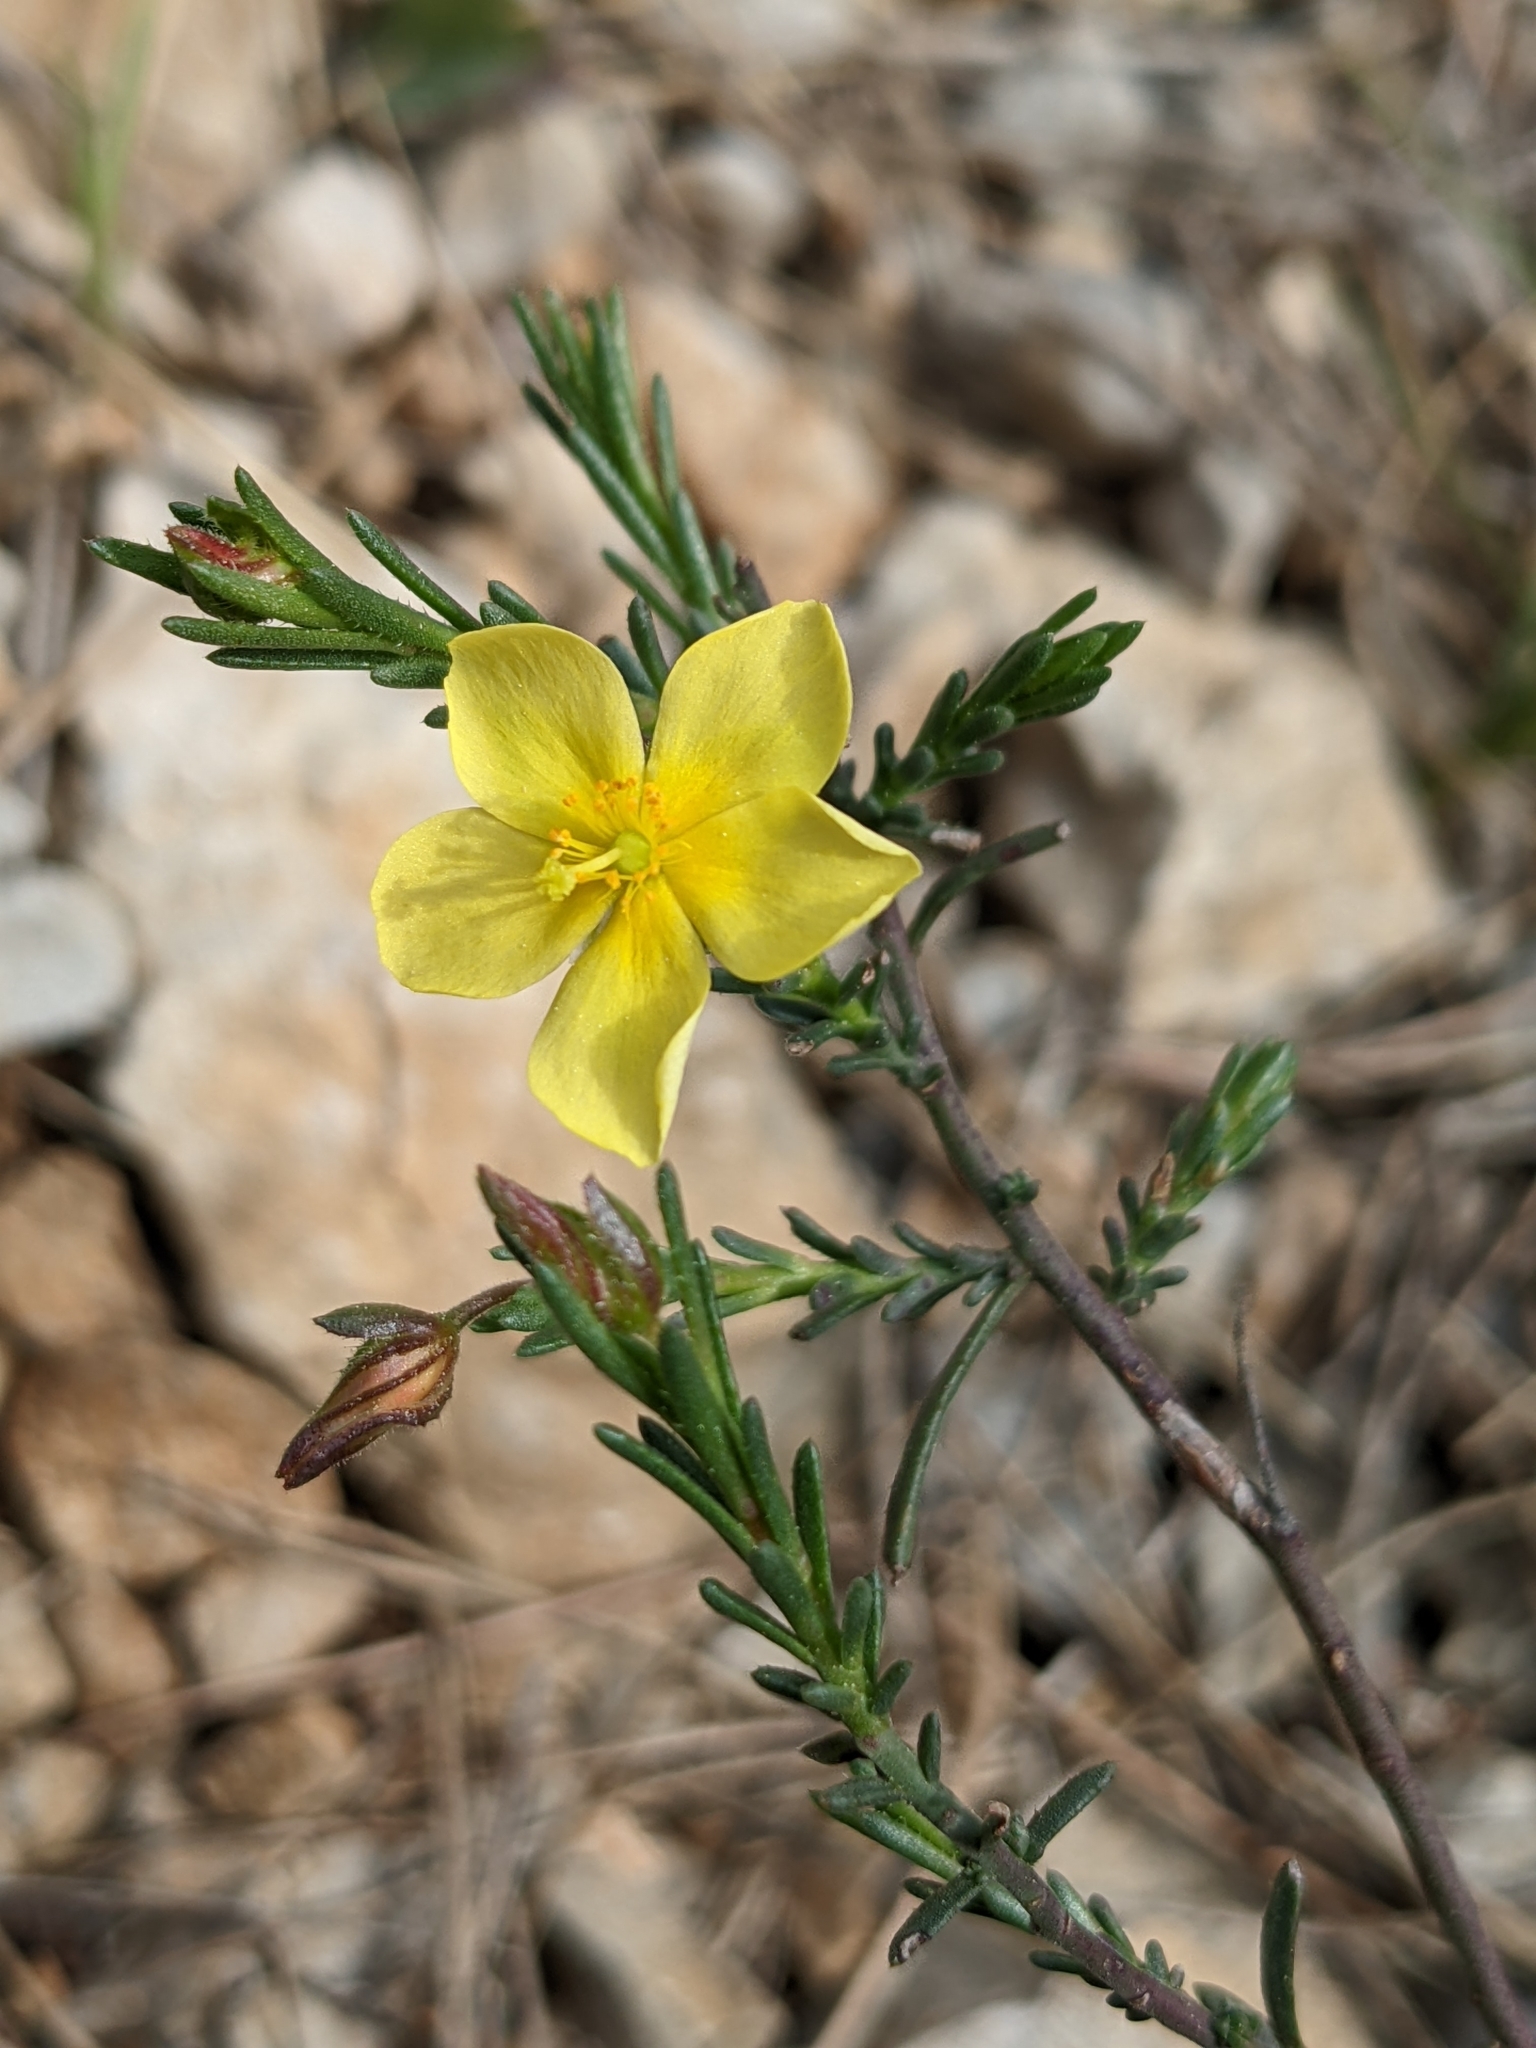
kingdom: Plantae
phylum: Tracheophyta
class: Magnoliopsida
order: Malvales
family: Cistaceae
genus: Fumana
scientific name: Fumana ericifolia
